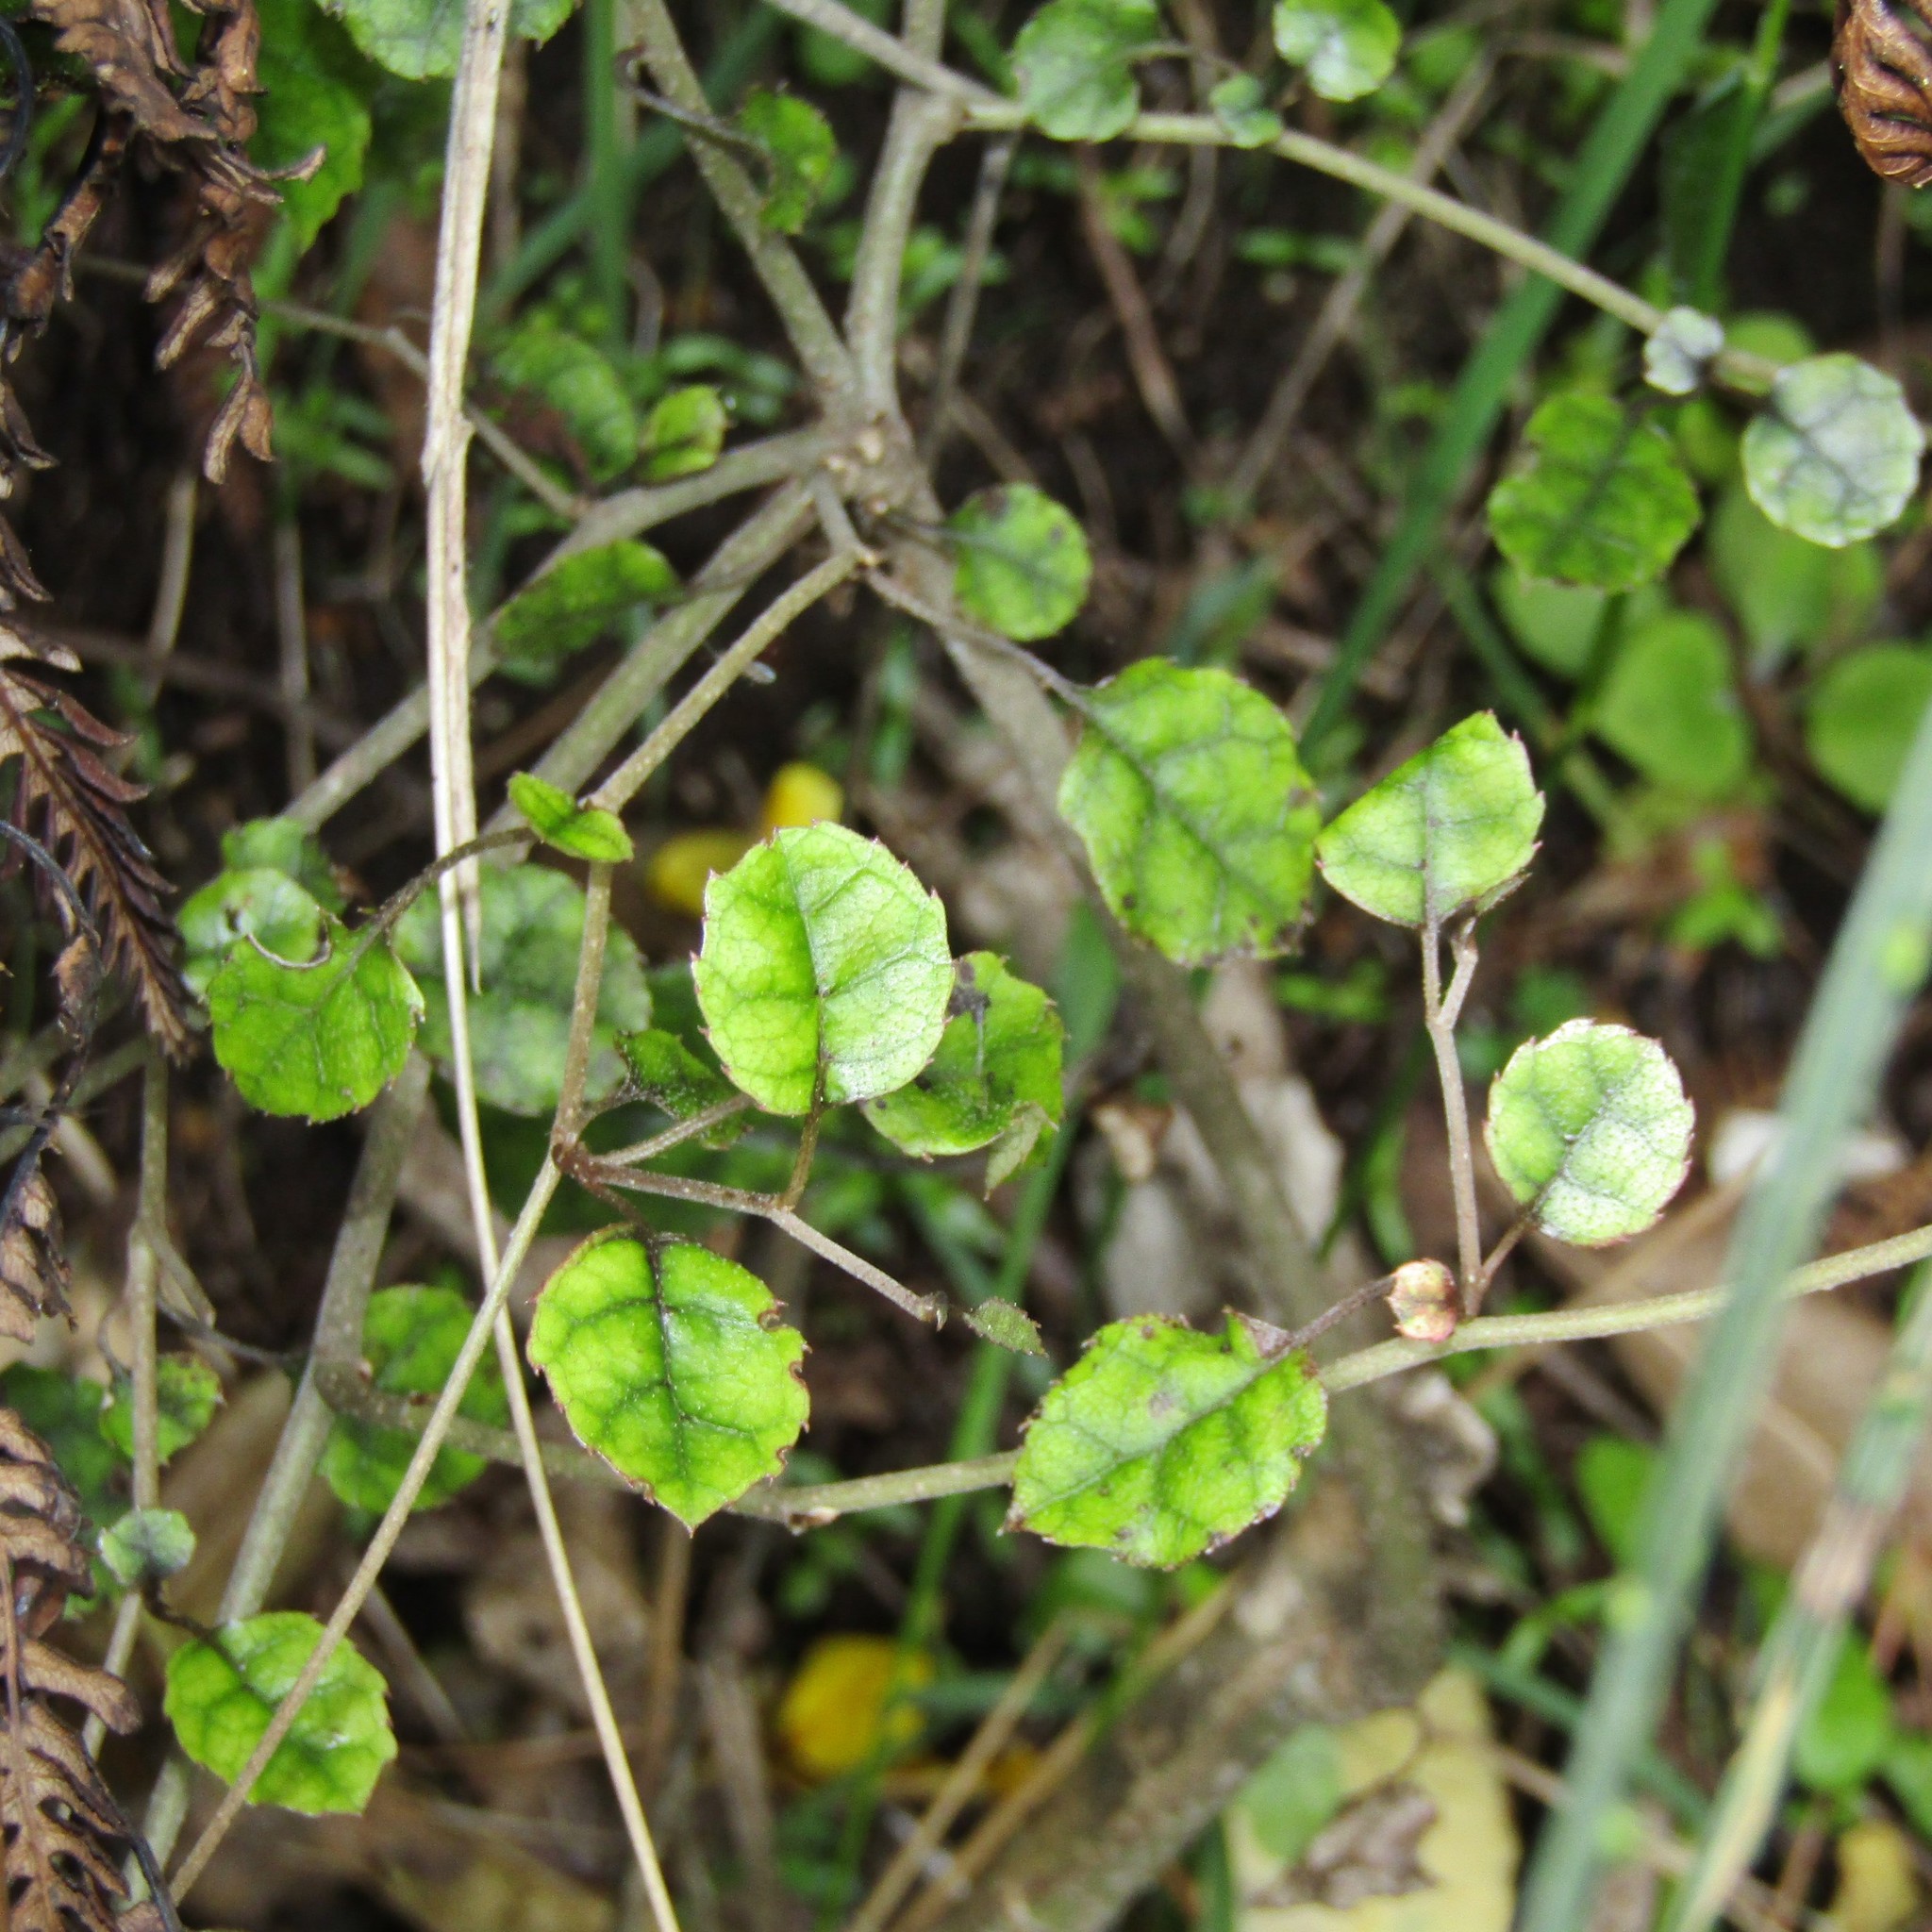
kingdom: Plantae
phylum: Tracheophyta
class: Magnoliopsida
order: Asterales
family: Rousseaceae
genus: Carpodetus
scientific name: Carpodetus serratus
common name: White mapau
